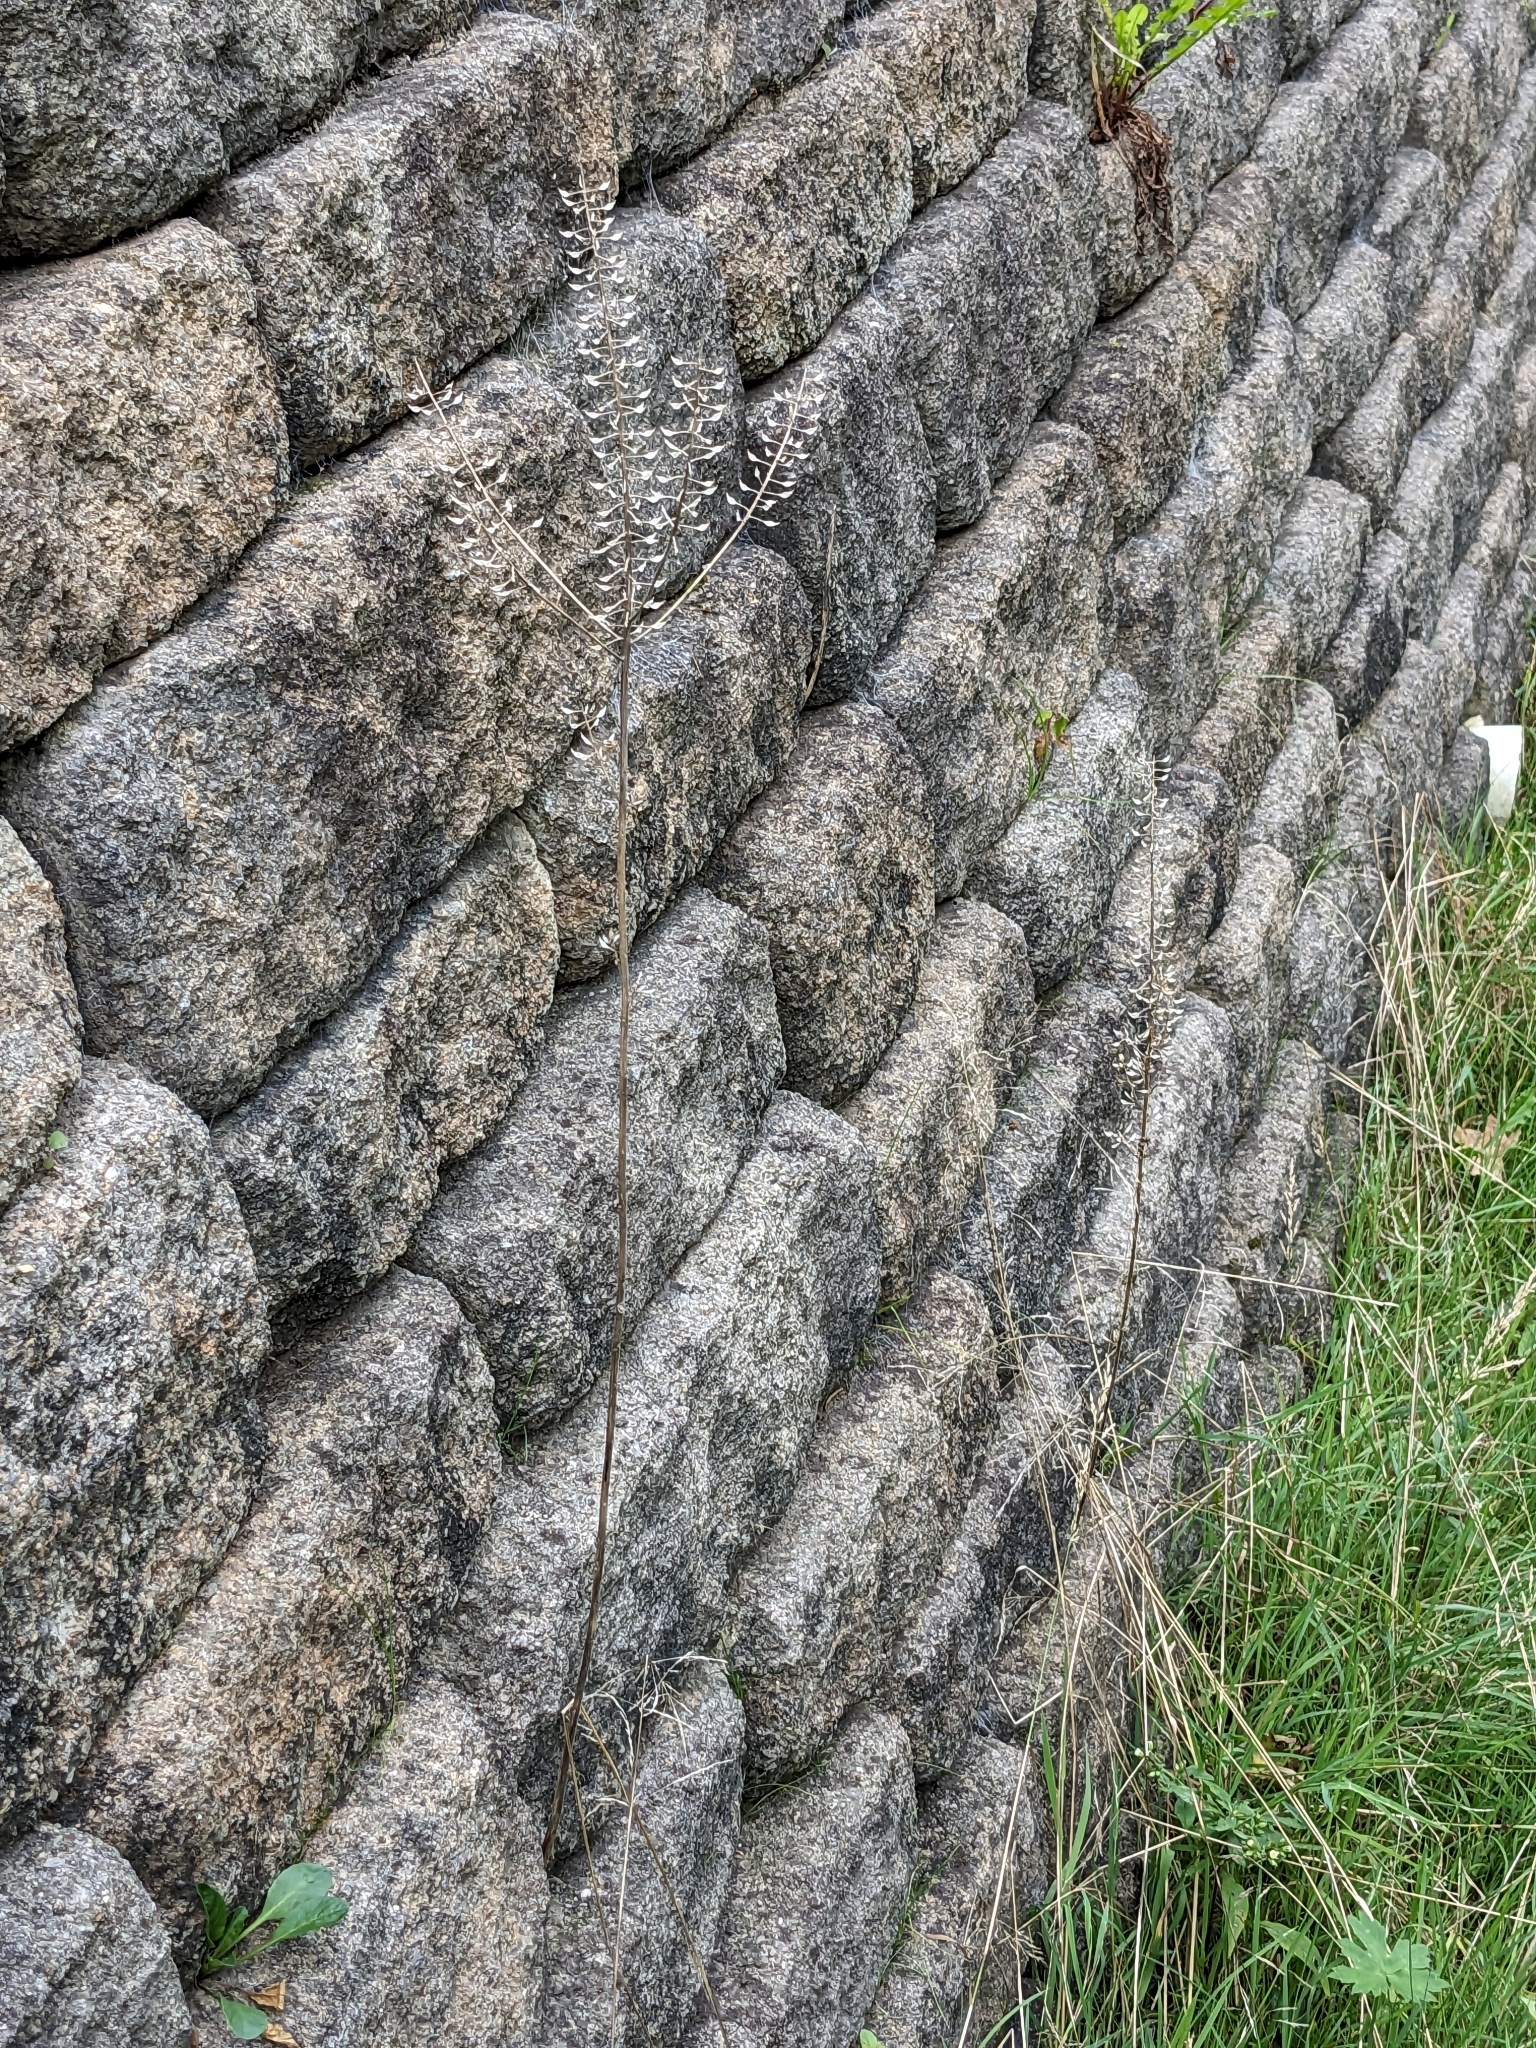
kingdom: Plantae
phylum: Tracheophyta
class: Magnoliopsida
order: Brassicales
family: Brassicaceae
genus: Lepidium
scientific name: Lepidium campestre
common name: Field pepperwort
